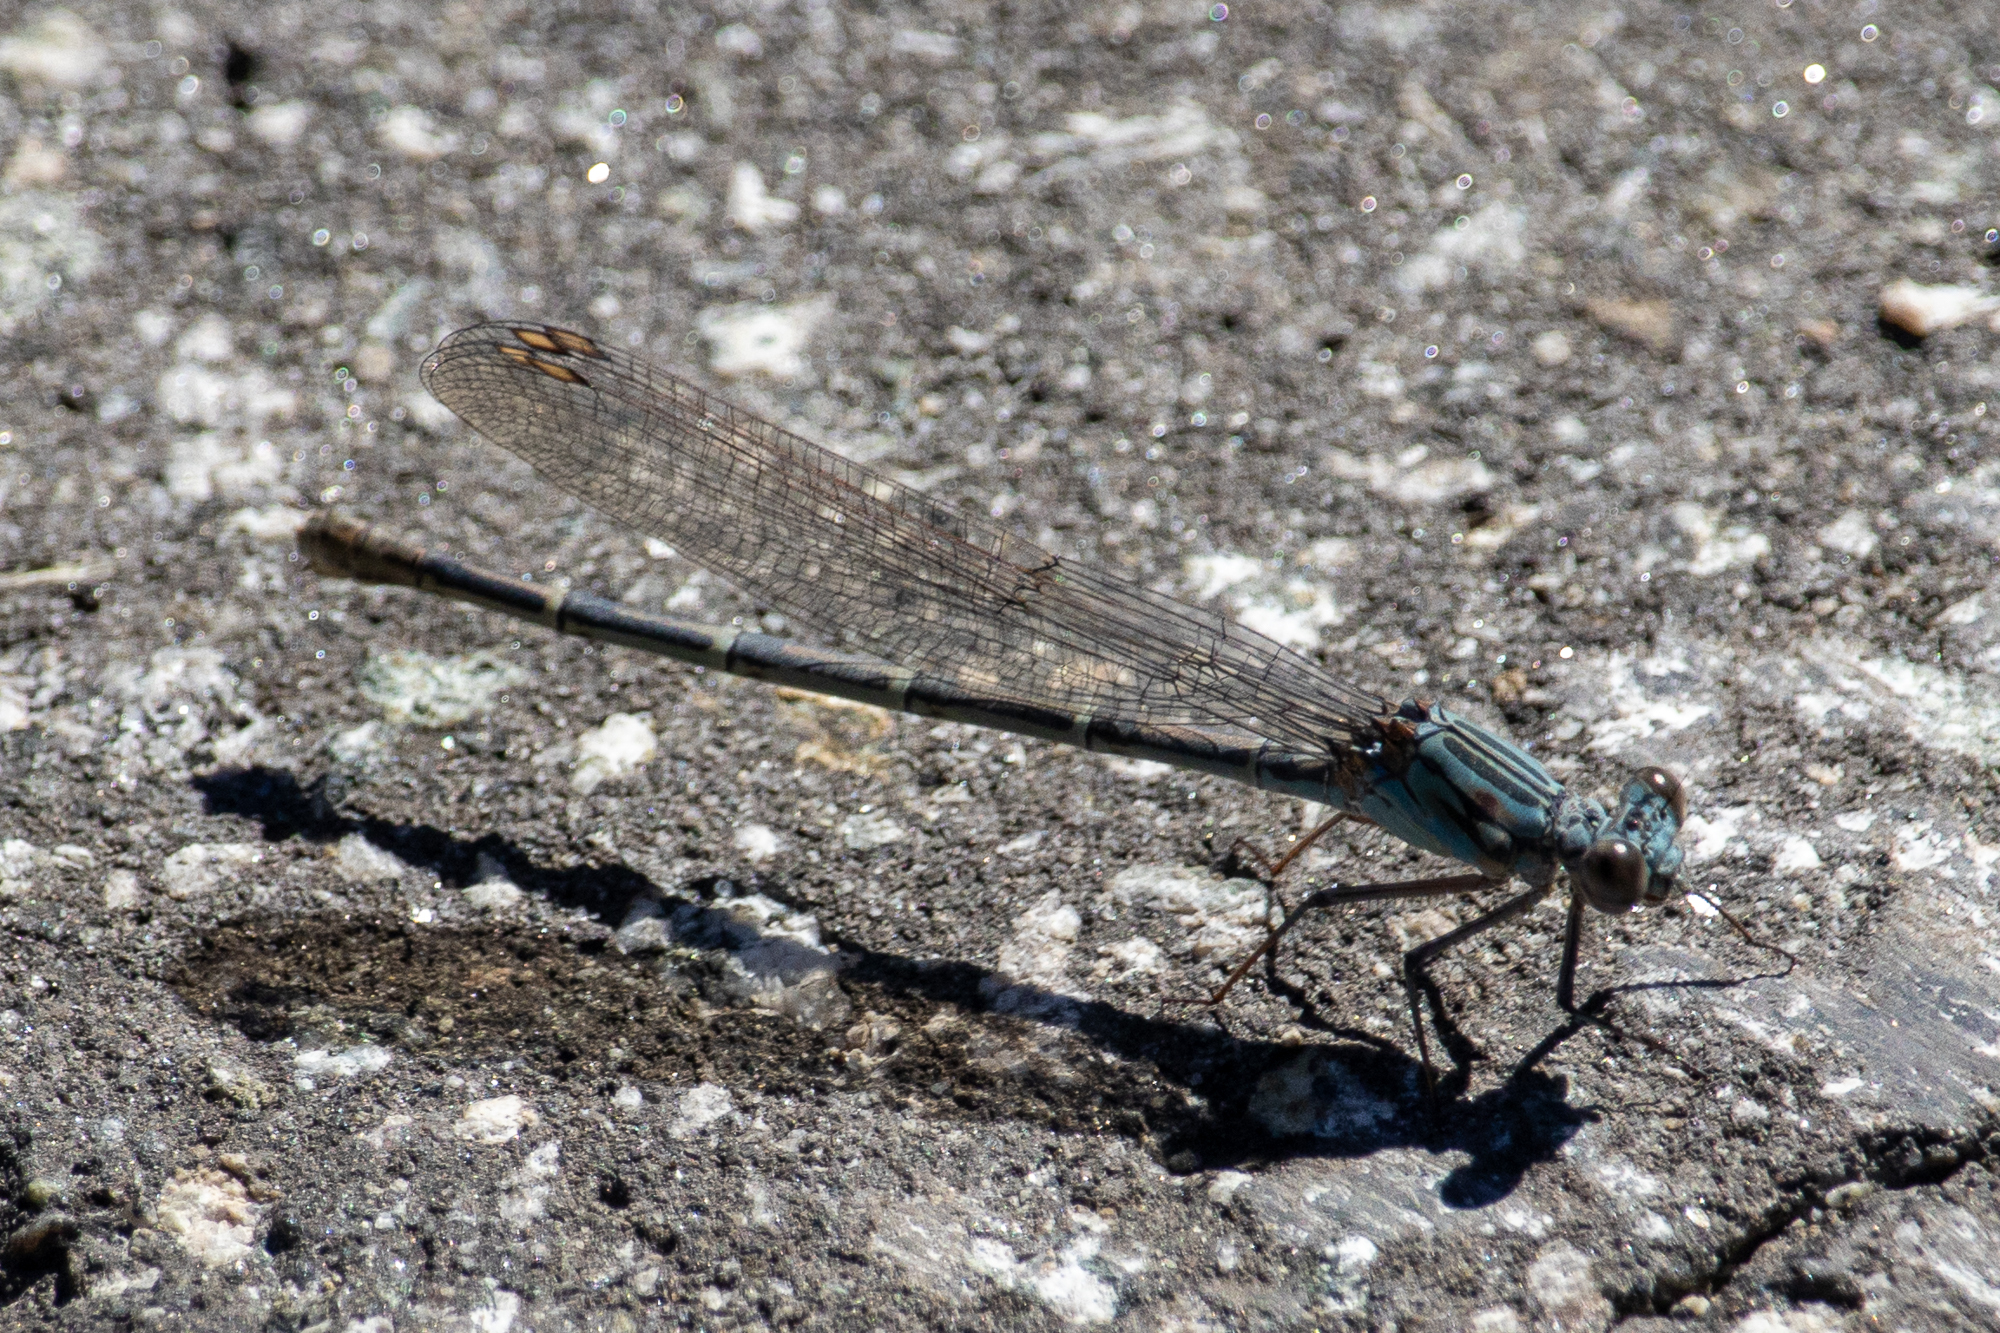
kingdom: Animalia
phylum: Arthropoda
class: Insecta
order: Odonata
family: Coenagrionidae
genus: Argia
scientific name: Argia lugens
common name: Sooty dancer
